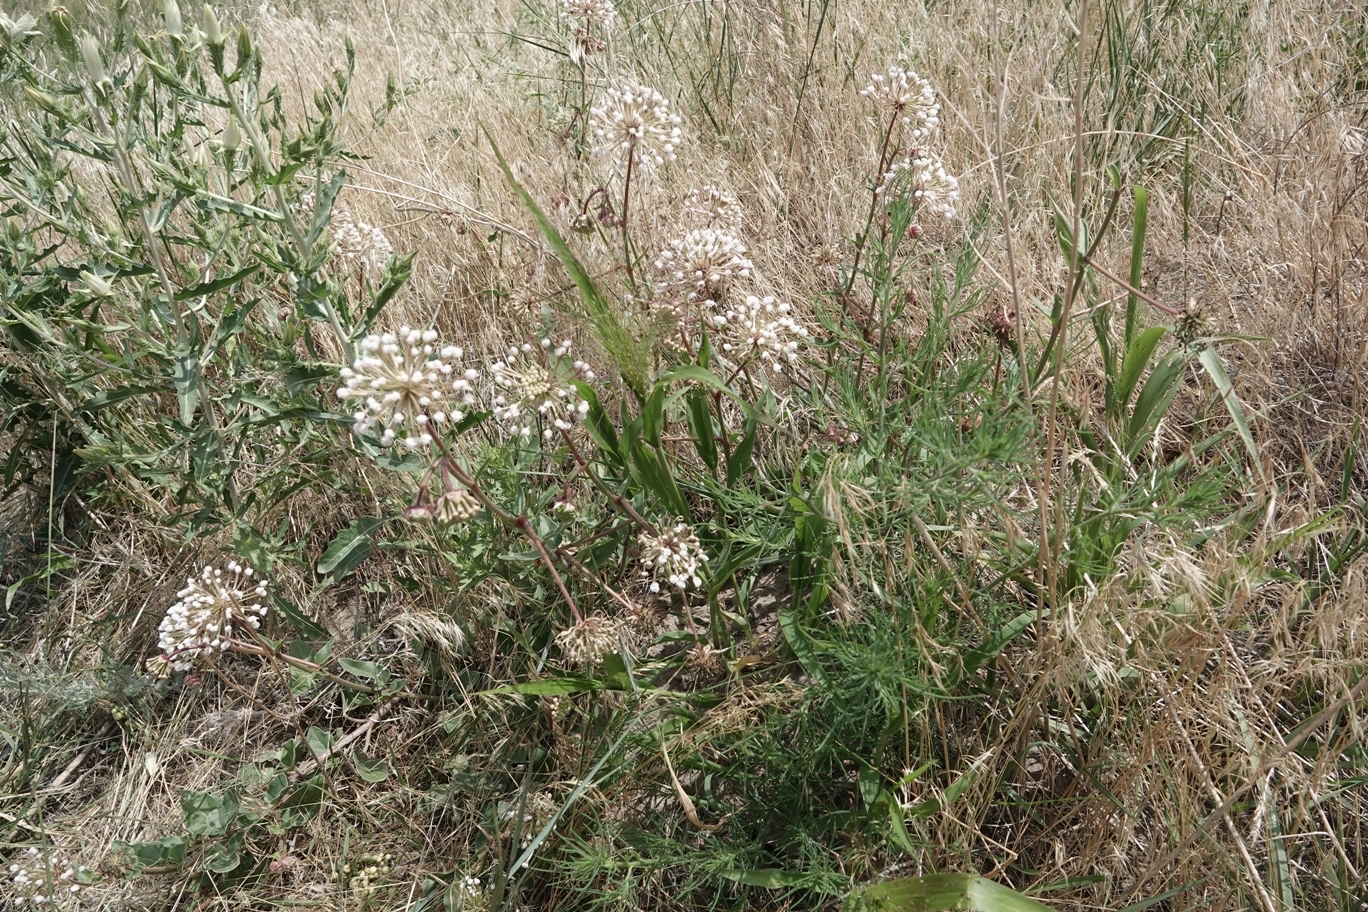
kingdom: Plantae
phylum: Tracheophyta
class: Magnoliopsida
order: Caryophyllales
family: Nyctaginaceae
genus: Abronia
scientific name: Abronia fragrans
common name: Fragrant sand-verbena
